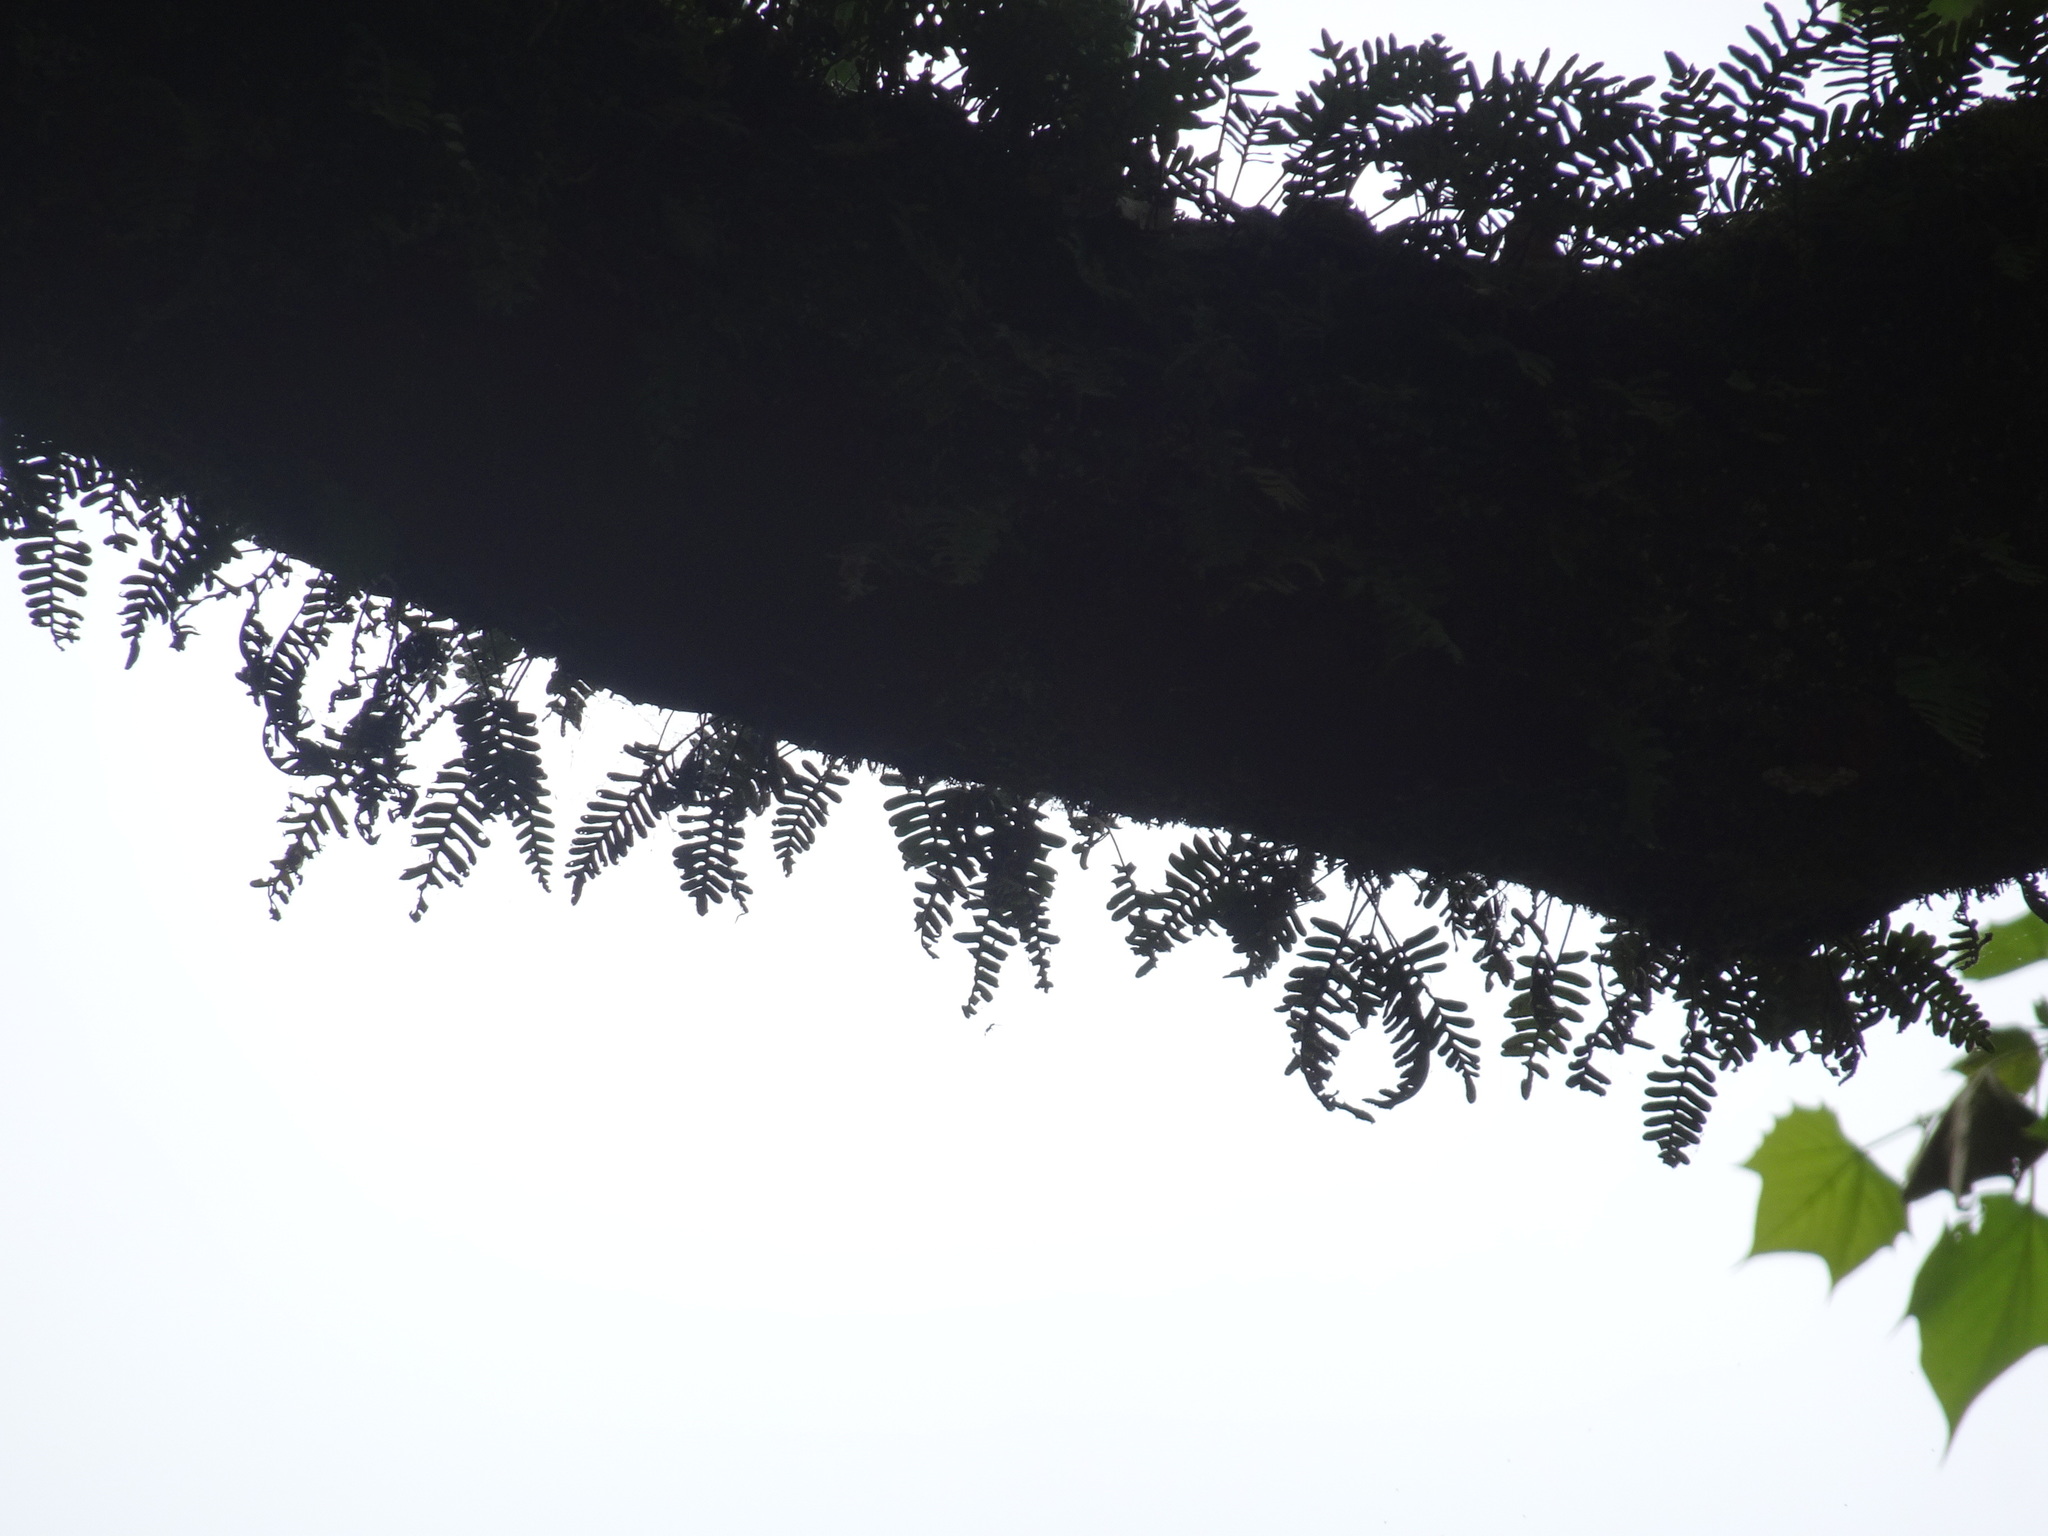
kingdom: Plantae
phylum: Tracheophyta
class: Polypodiopsida
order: Polypodiales
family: Polypodiaceae
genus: Pleopeltis
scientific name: Pleopeltis michauxiana
